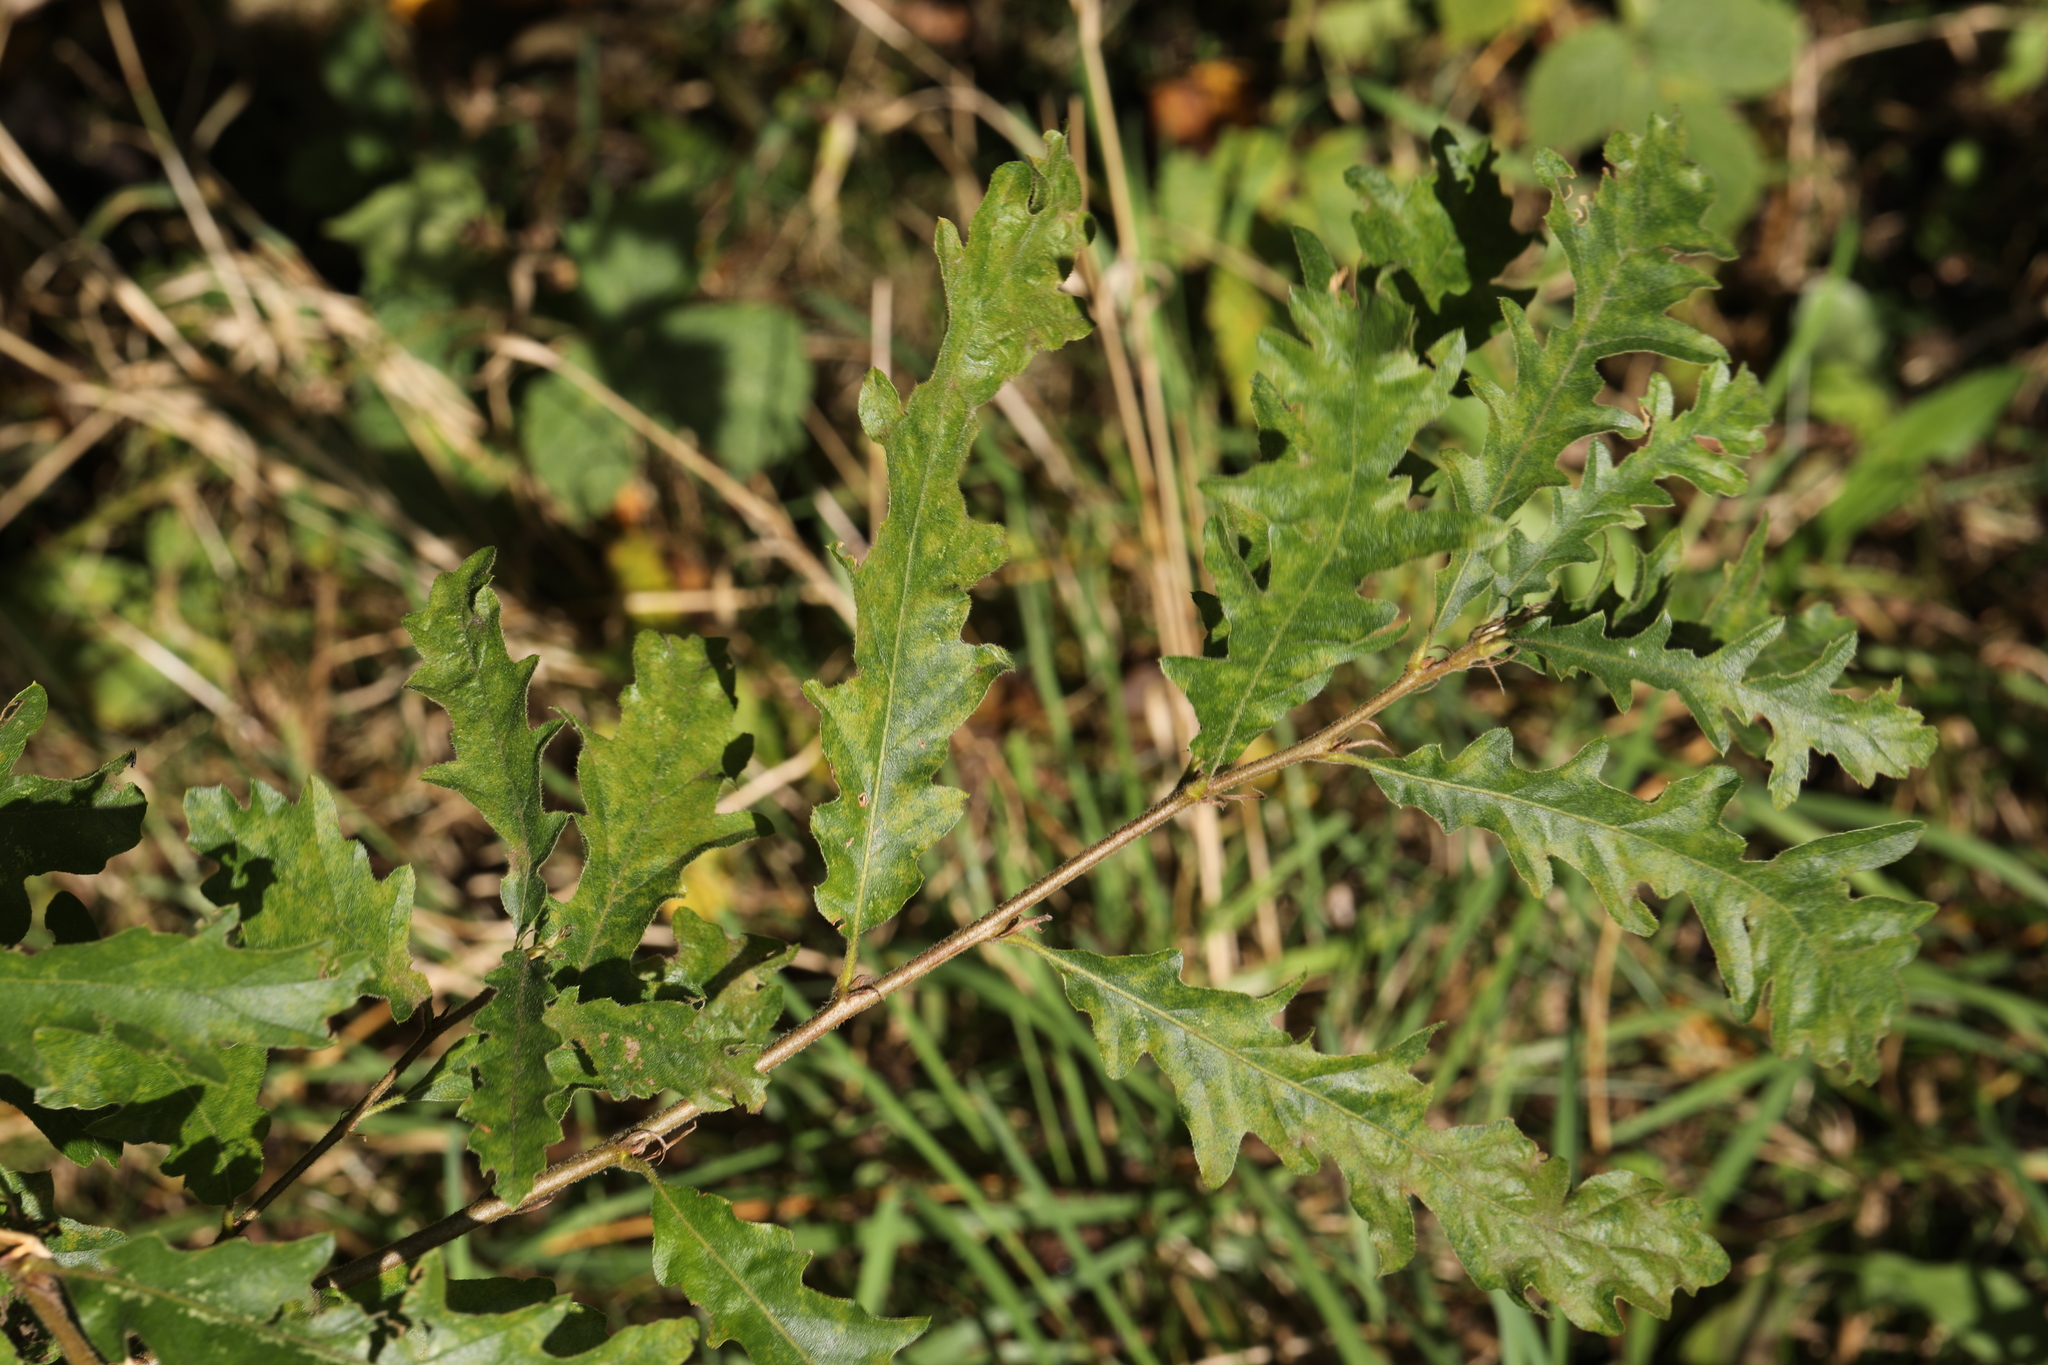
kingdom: Plantae
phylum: Tracheophyta
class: Magnoliopsida
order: Fagales
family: Fagaceae
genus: Quercus
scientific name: Quercus cerris
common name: Turkey oak
